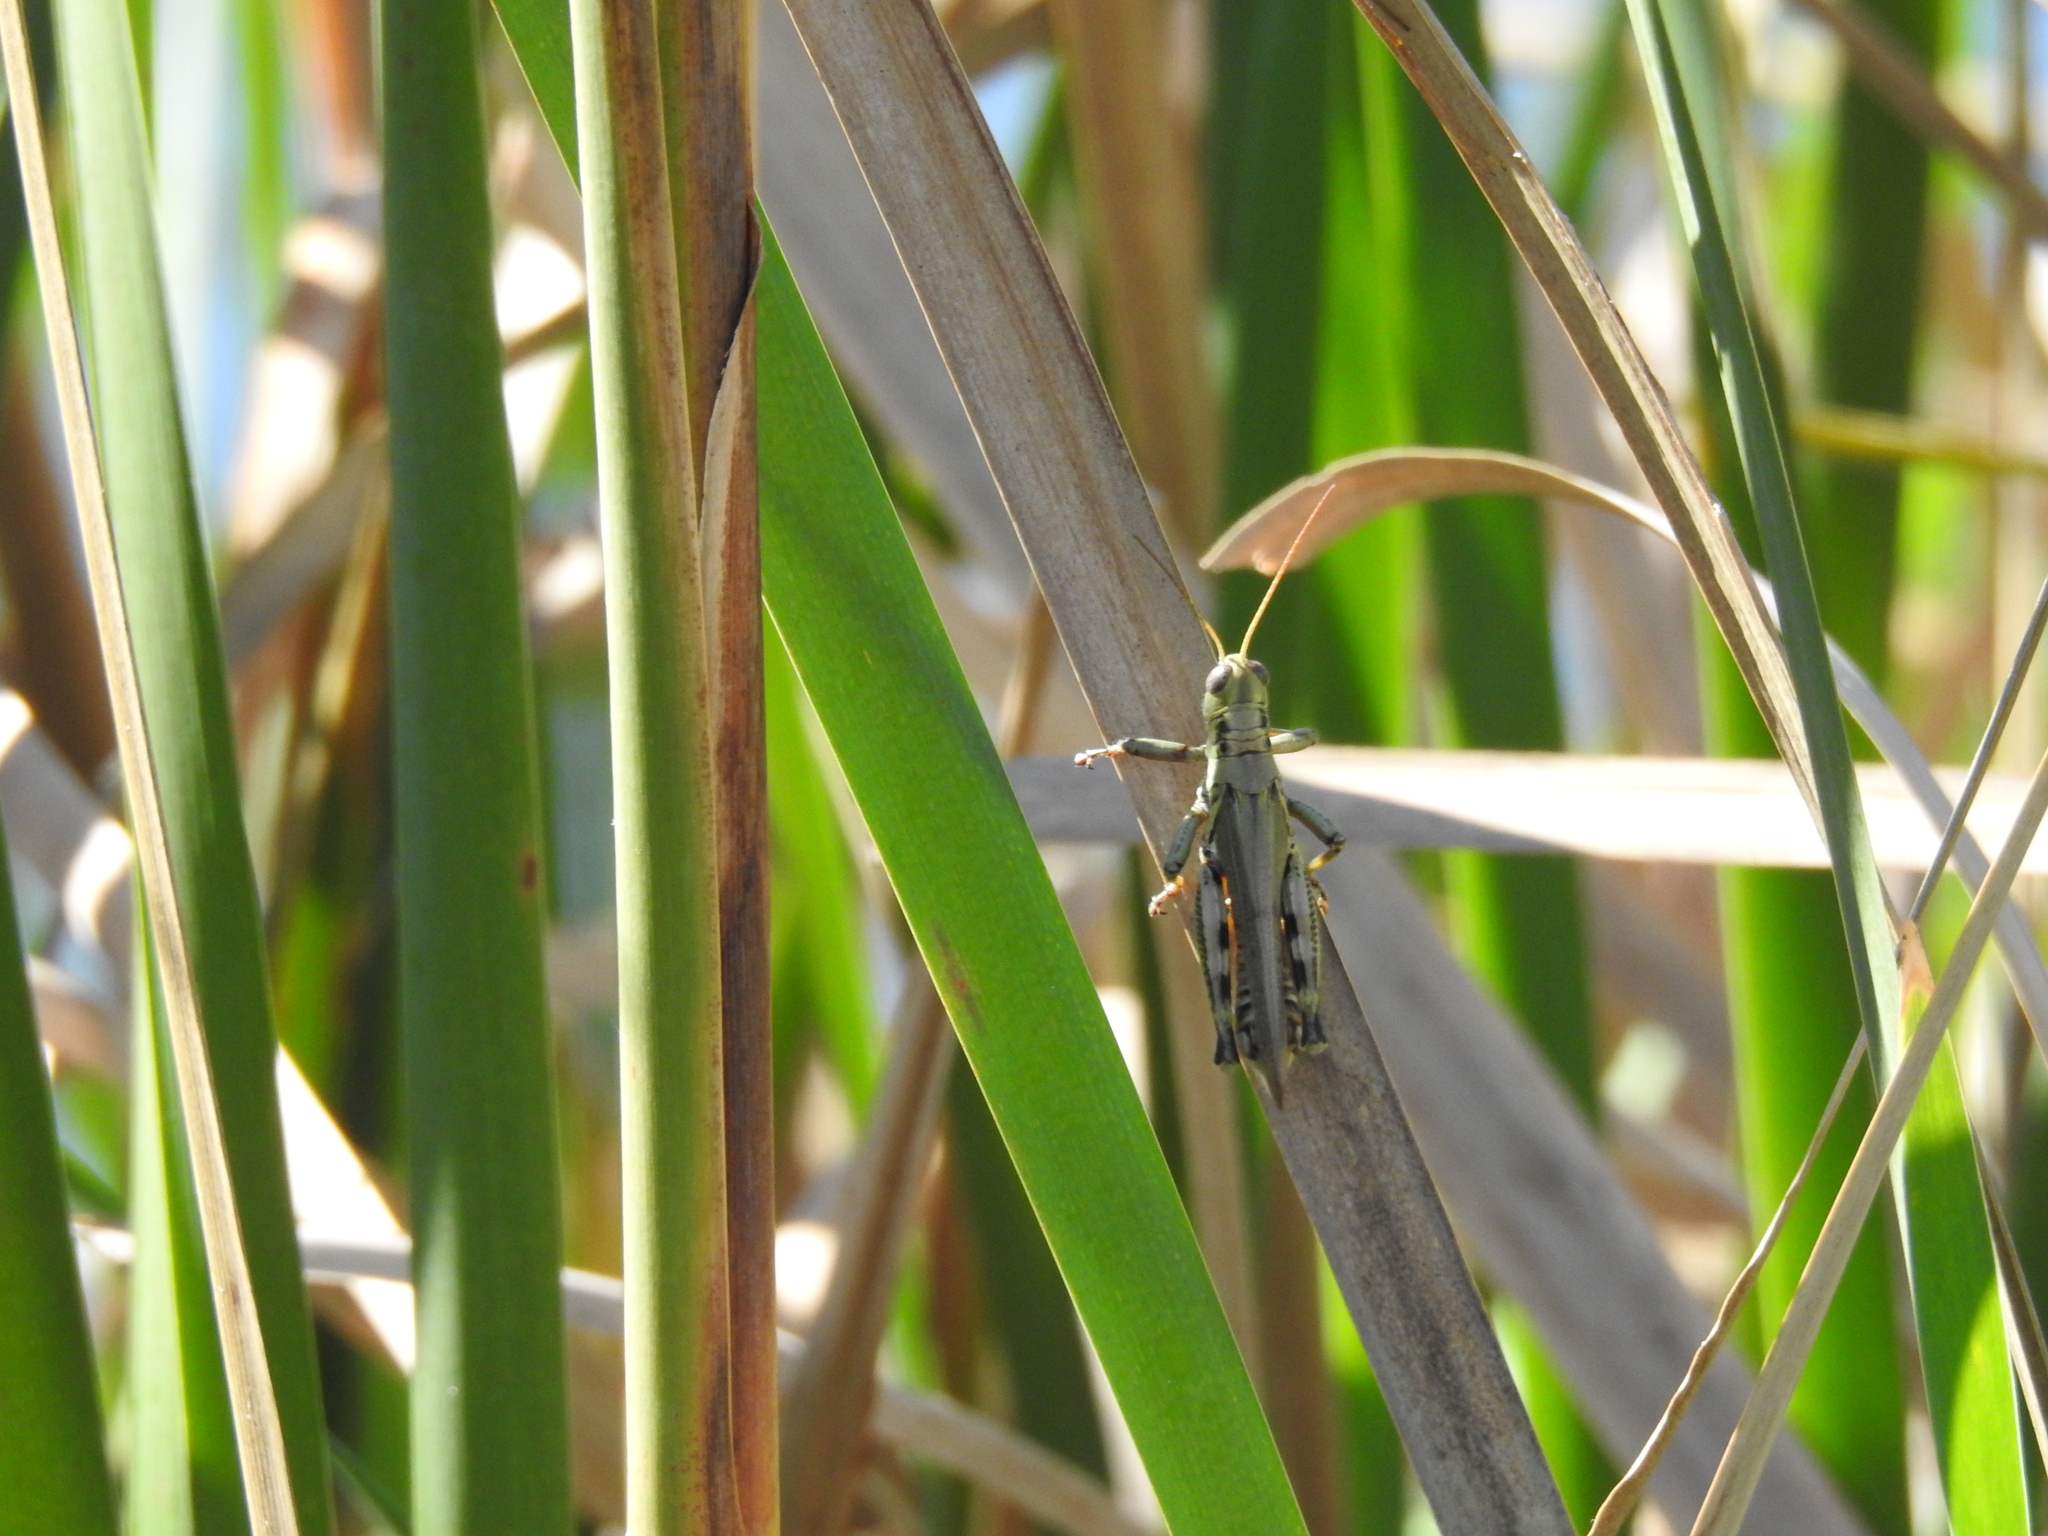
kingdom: Animalia
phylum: Arthropoda
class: Insecta
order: Orthoptera
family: Acrididae
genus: Melanoplus
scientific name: Melanoplus differentialis
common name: Differential grasshopper
